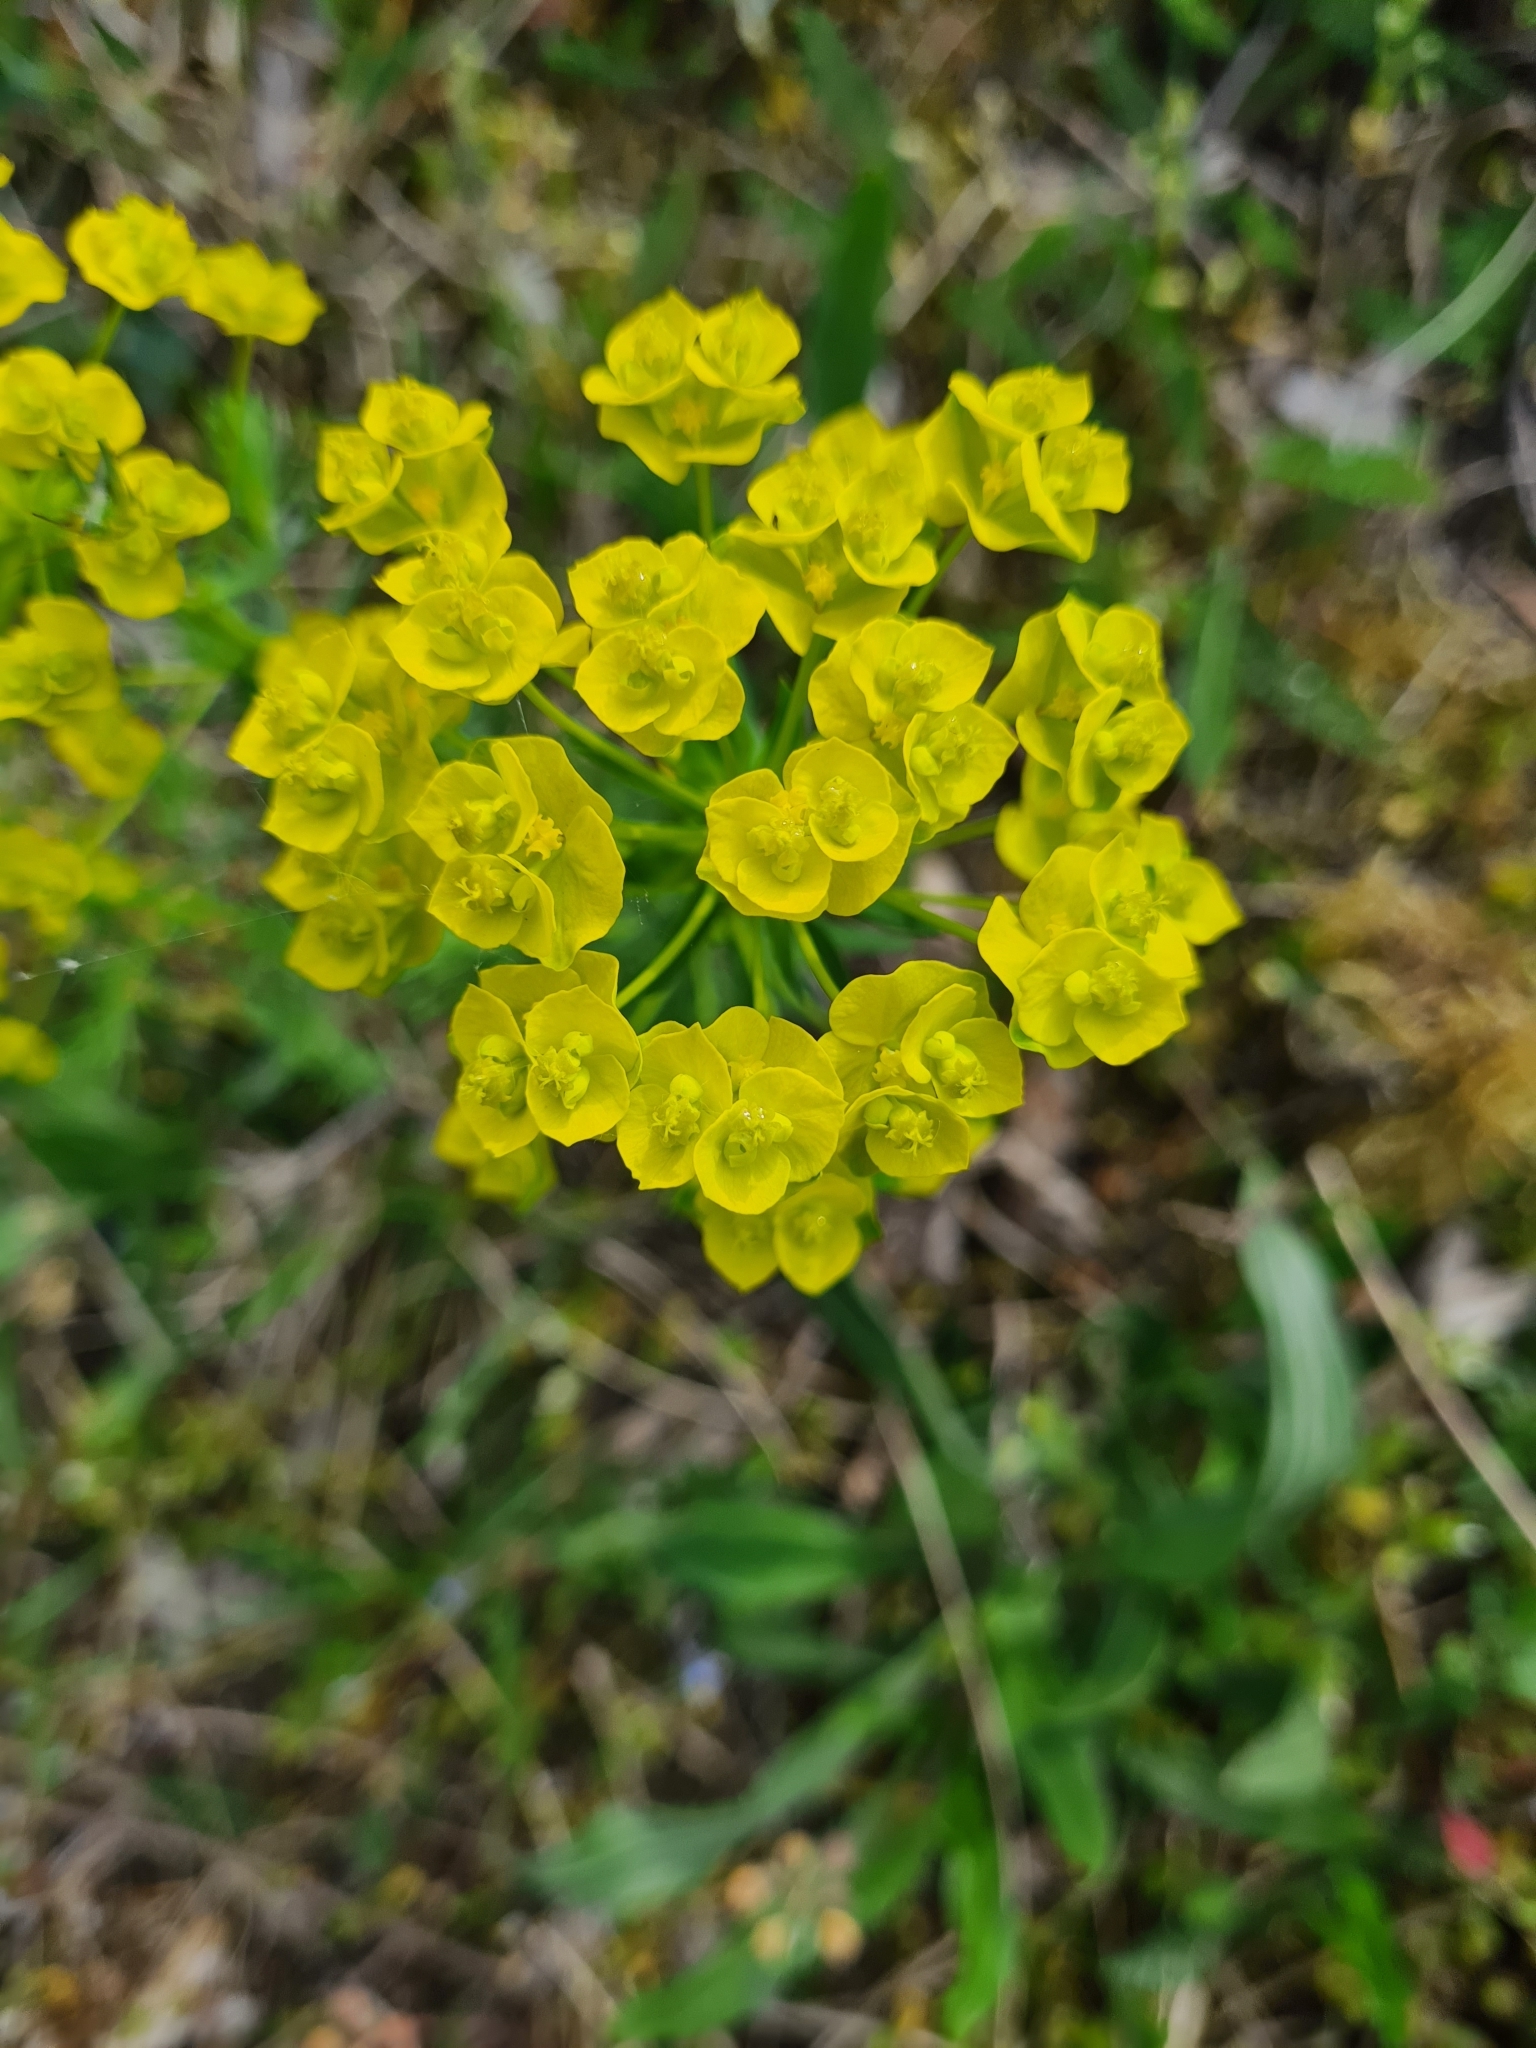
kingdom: Plantae
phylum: Tracheophyta
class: Magnoliopsida
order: Malpighiales
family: Euphorbiaceae
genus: Euphorbia
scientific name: Euphorbia cyparissias
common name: Cypress spurge
